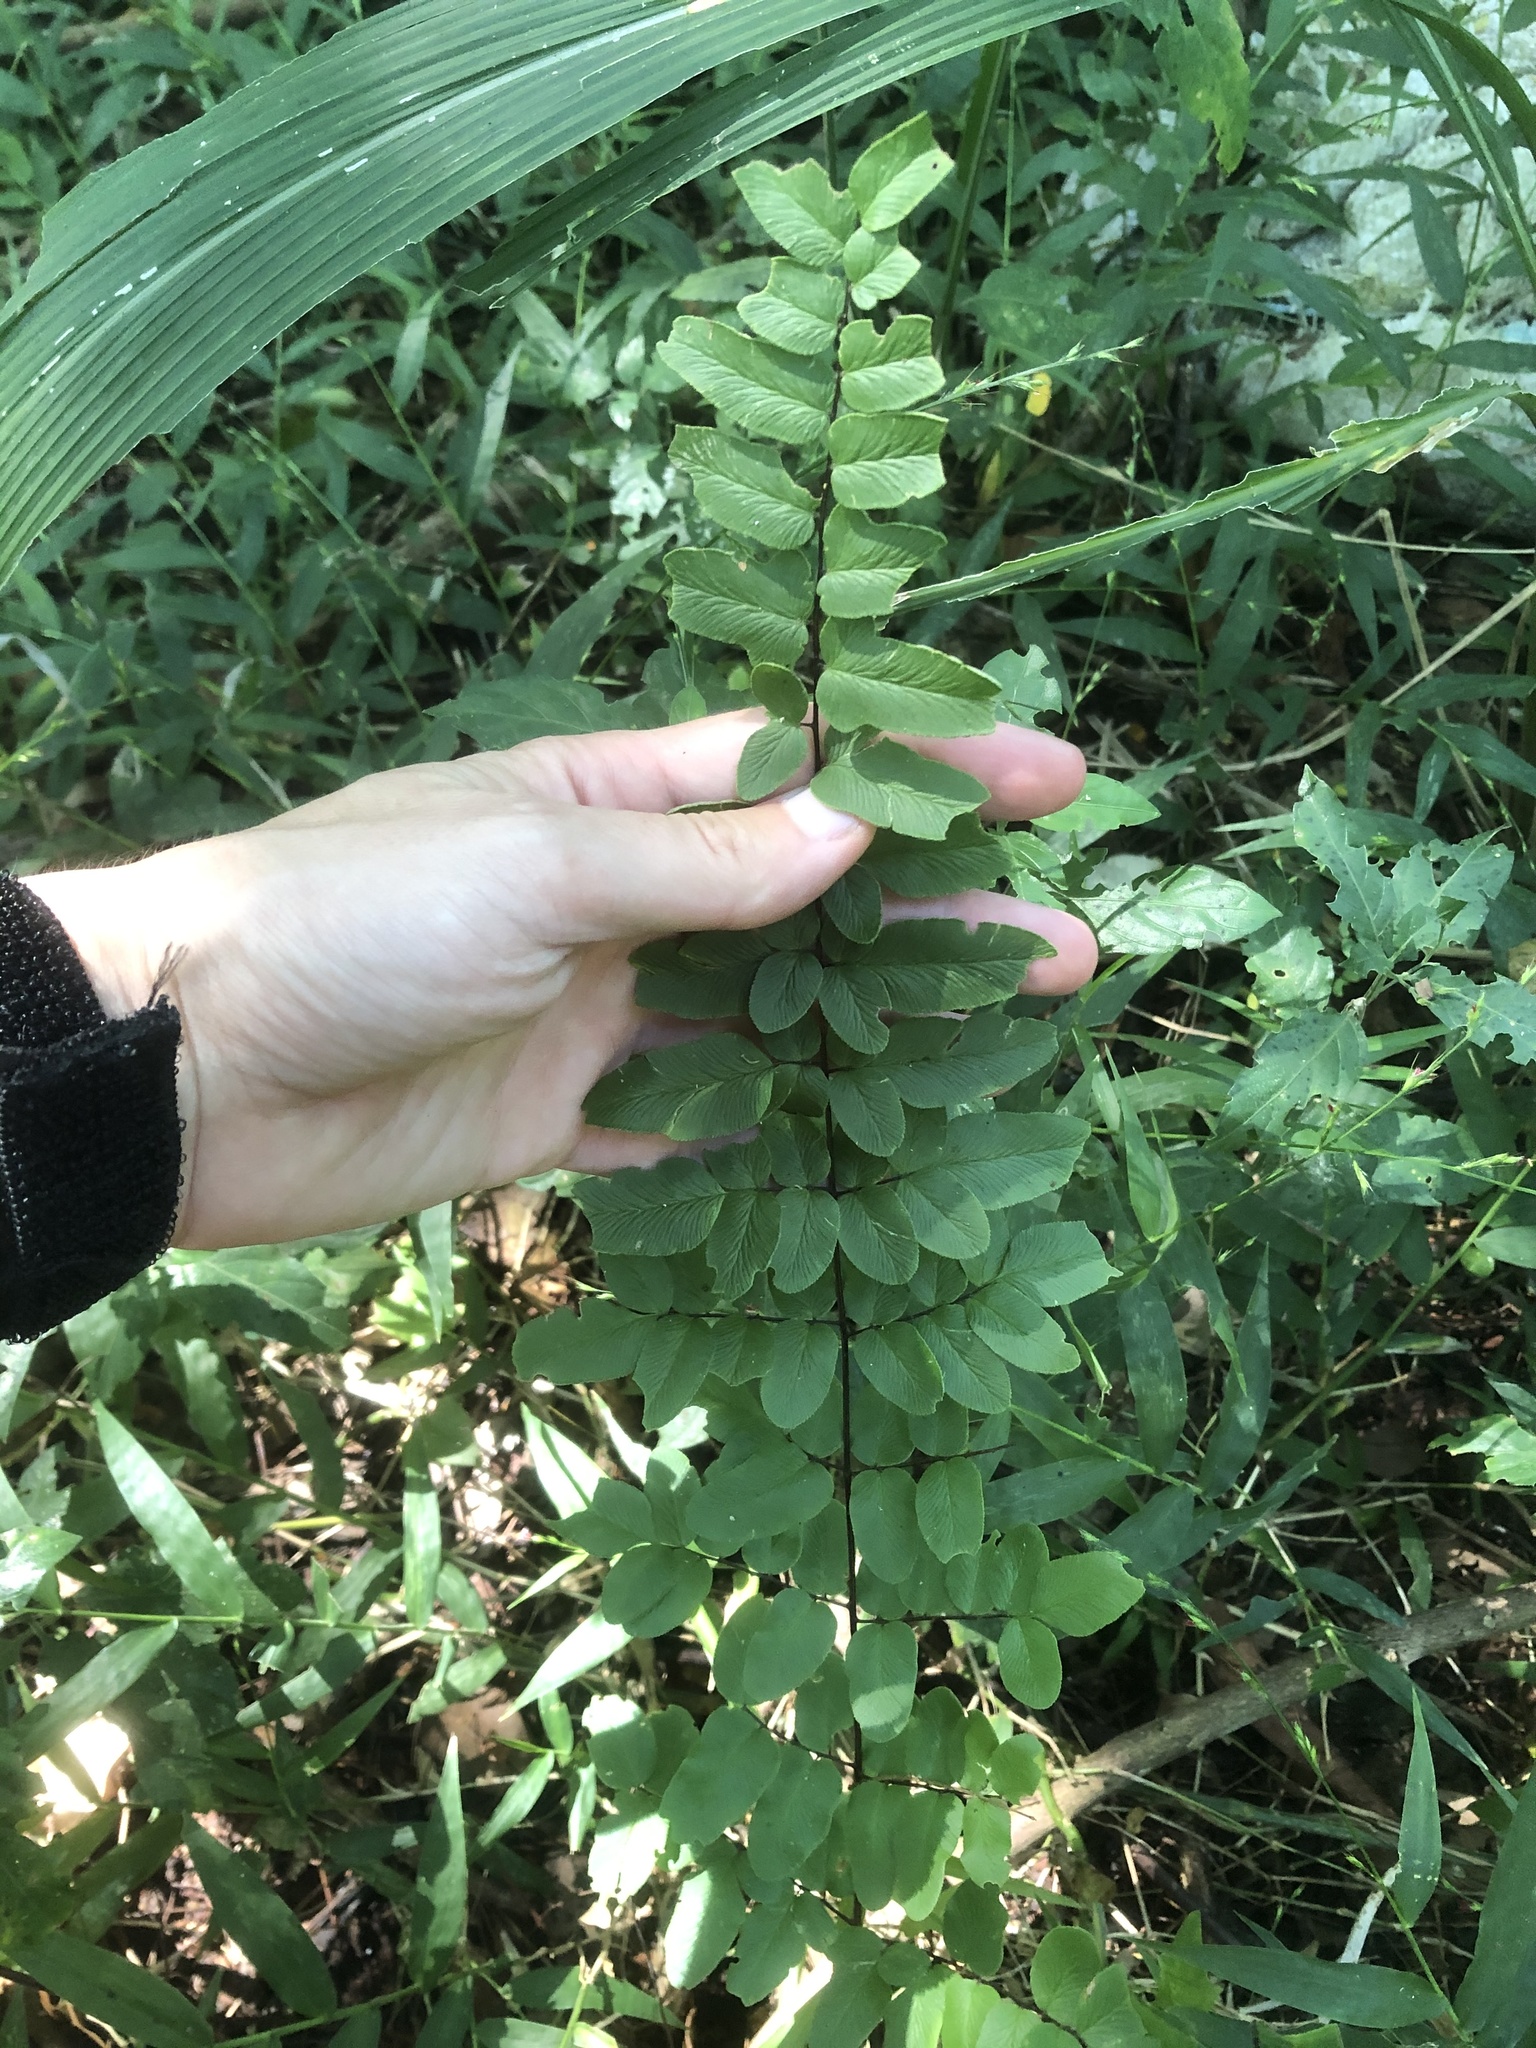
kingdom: Plantae
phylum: Tracheophyta
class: Polypodiopsida
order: Polypodiales
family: Pteridaceae
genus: Cheilanthes
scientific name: Cheilanthes viridis
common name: Green cliffbrake
